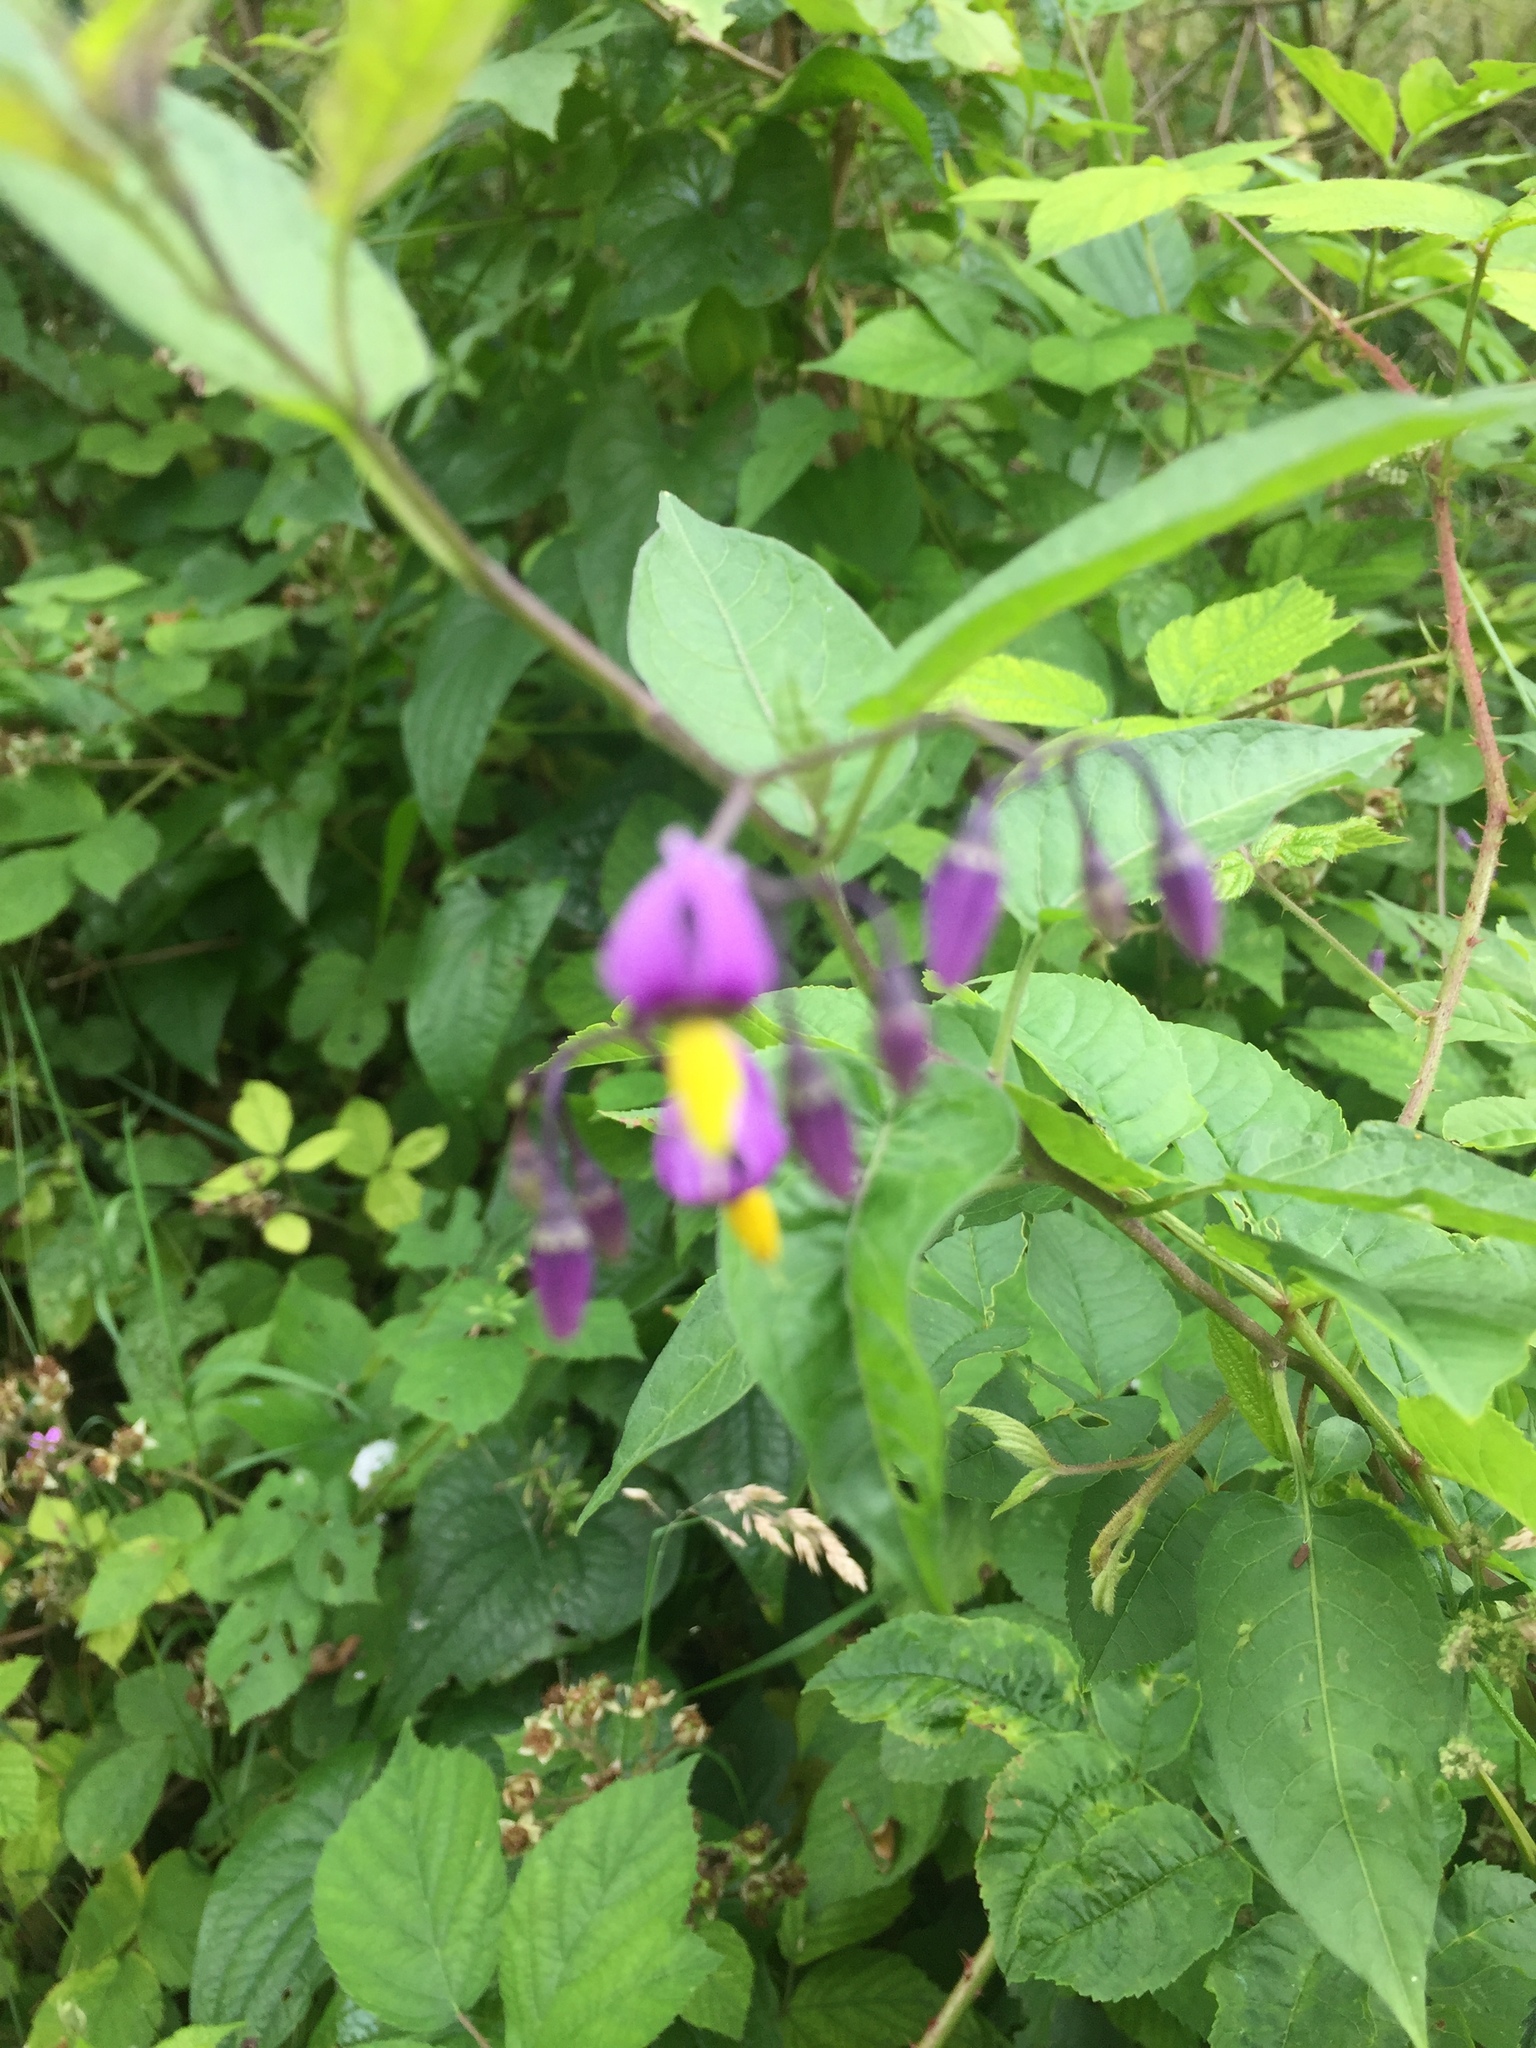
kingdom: Plantae
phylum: Tracheophyta
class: Magnoliopsida
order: Solanales
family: Solanaceae
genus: Solanum
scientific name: Solanum dulcamara
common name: Climbing nightshade
